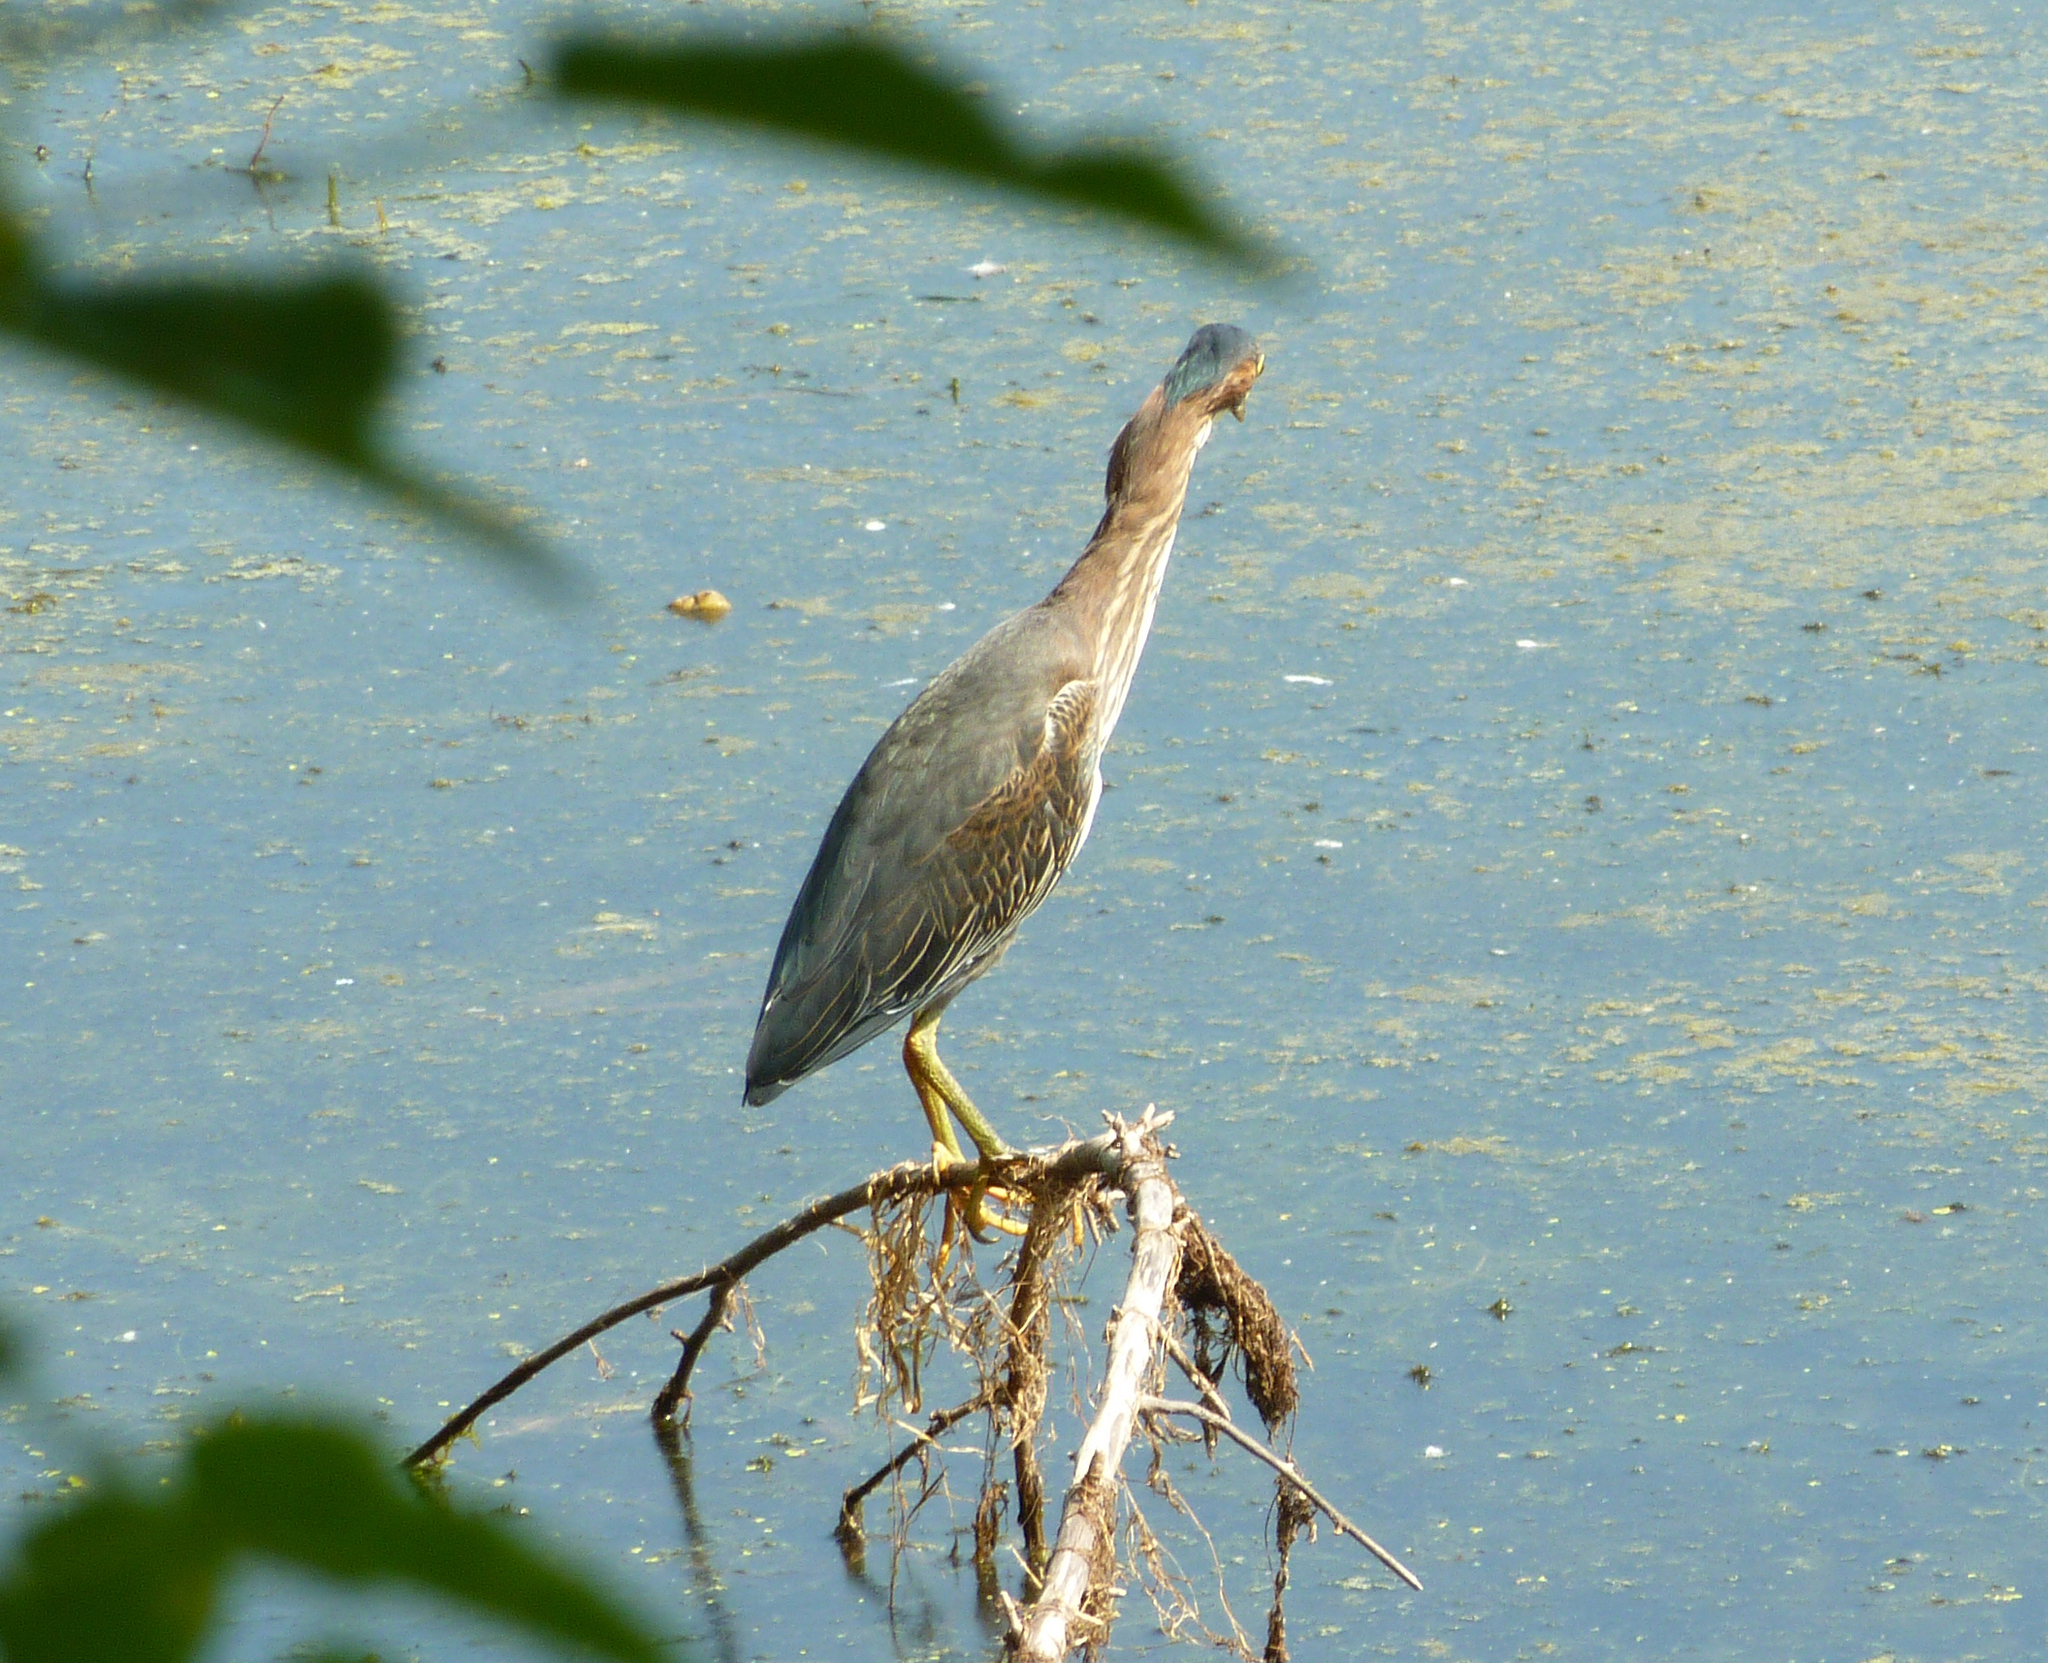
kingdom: Animalia
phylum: Chordata
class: Aves
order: Pelecaniformes
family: Ardeidae
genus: Butorides
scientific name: Butorides virescens
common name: Green heron
